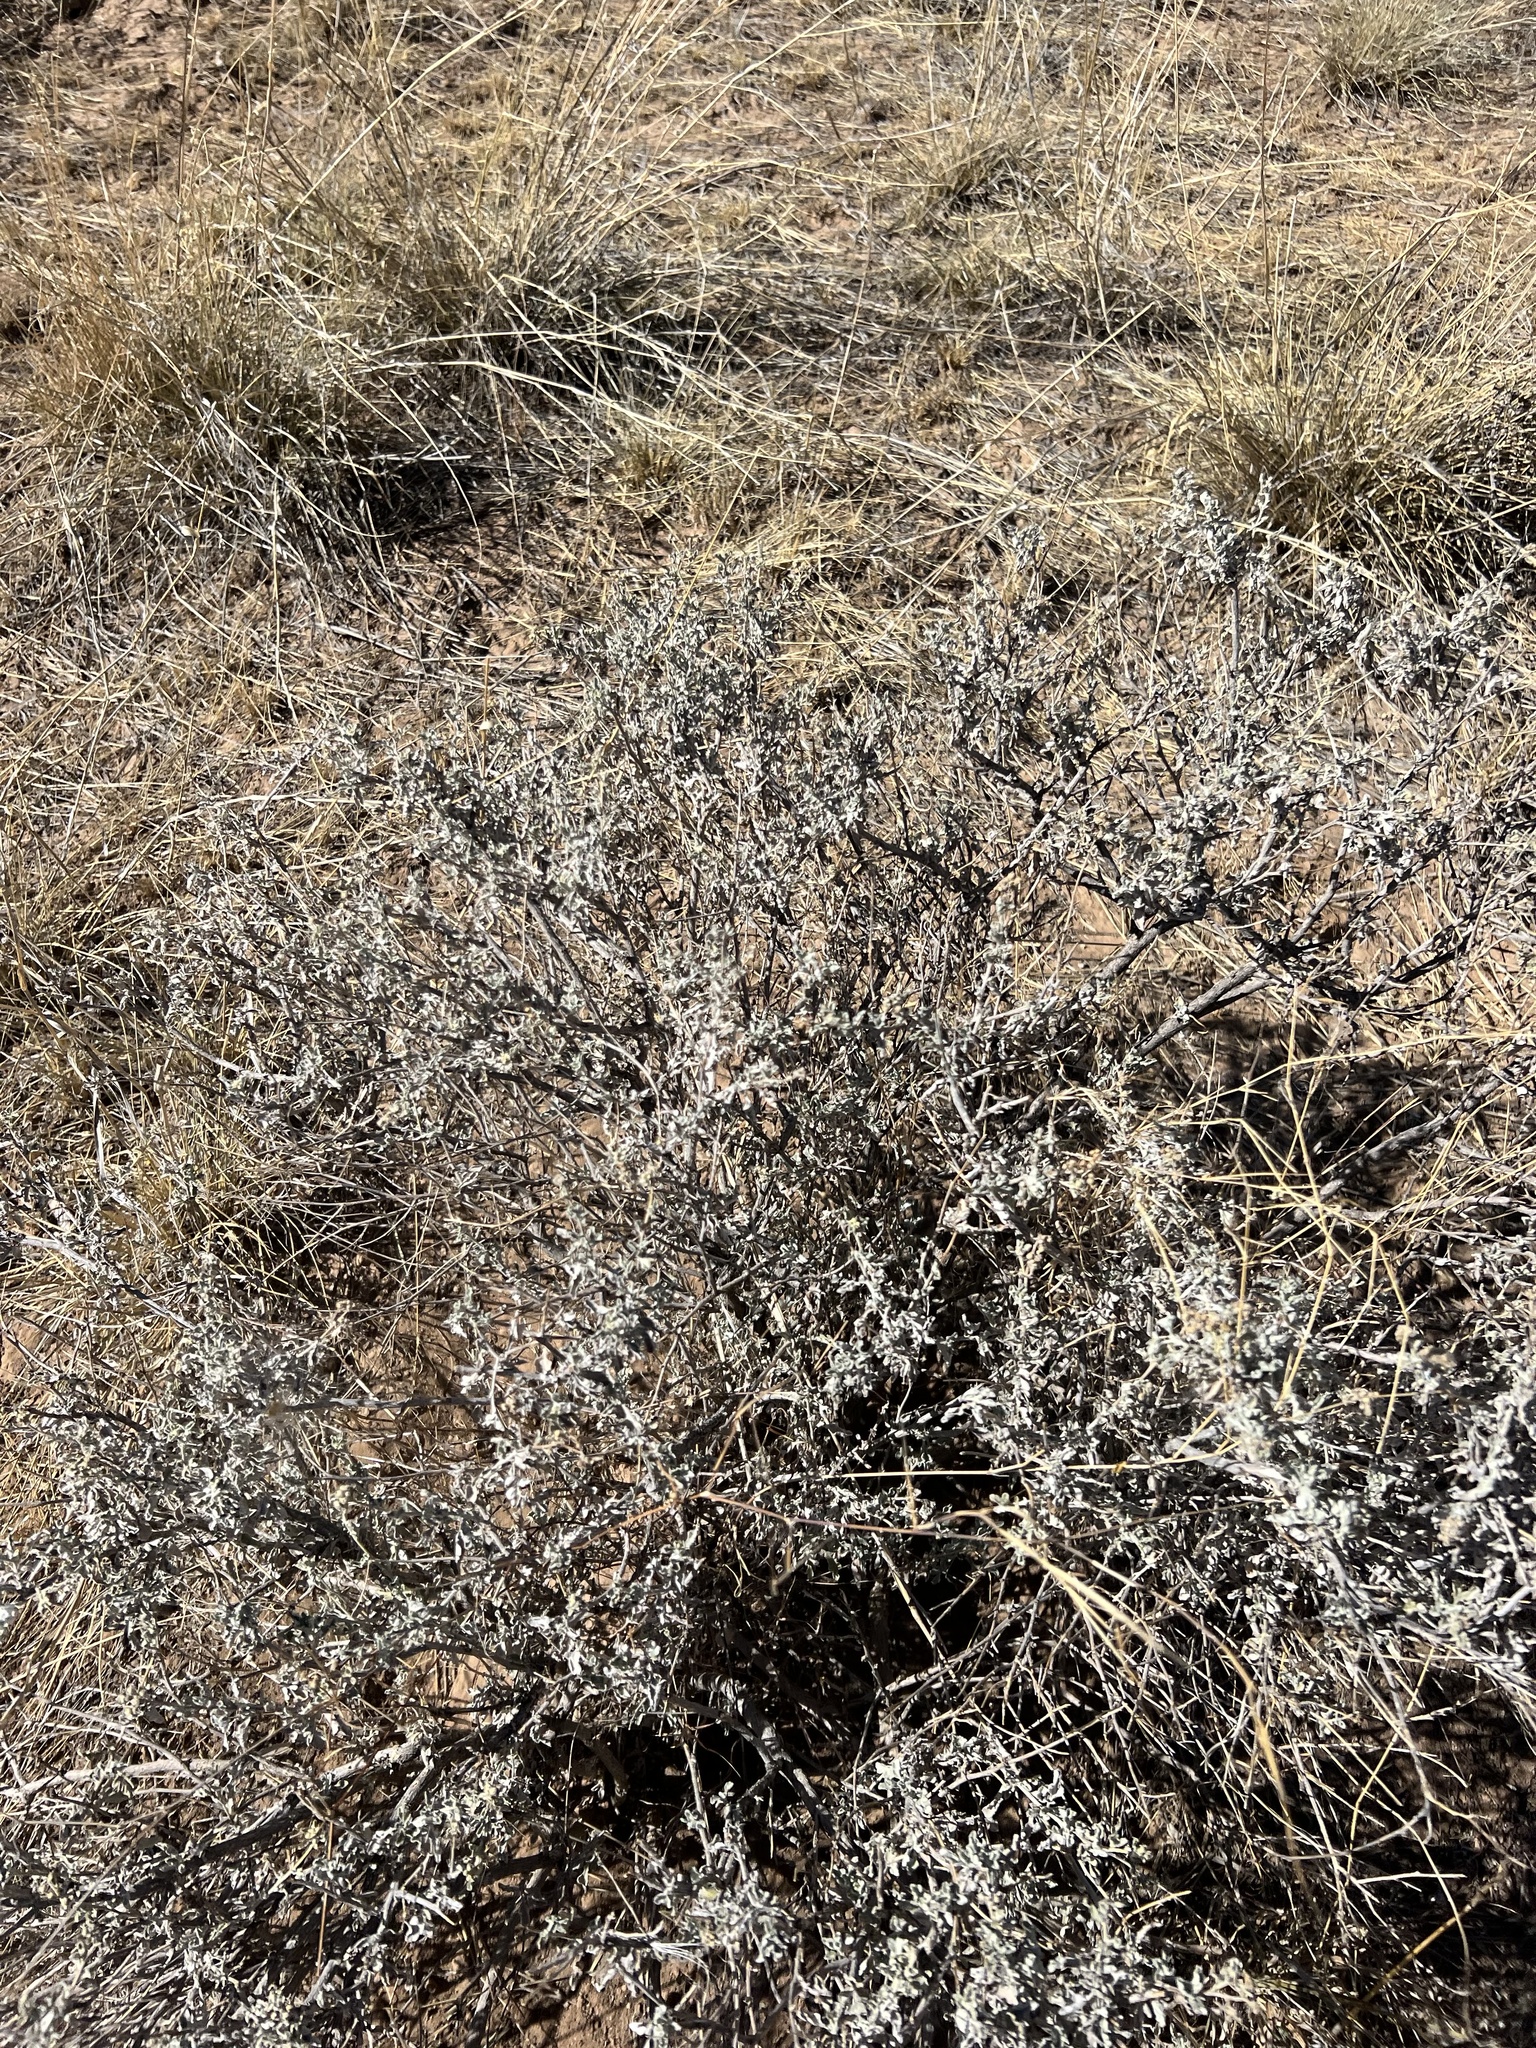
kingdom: Plantae
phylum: Tracheophyta
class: Magnoliopsida
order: Asterales
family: Asteraceae
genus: Parthenium
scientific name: Parthenium incanum
